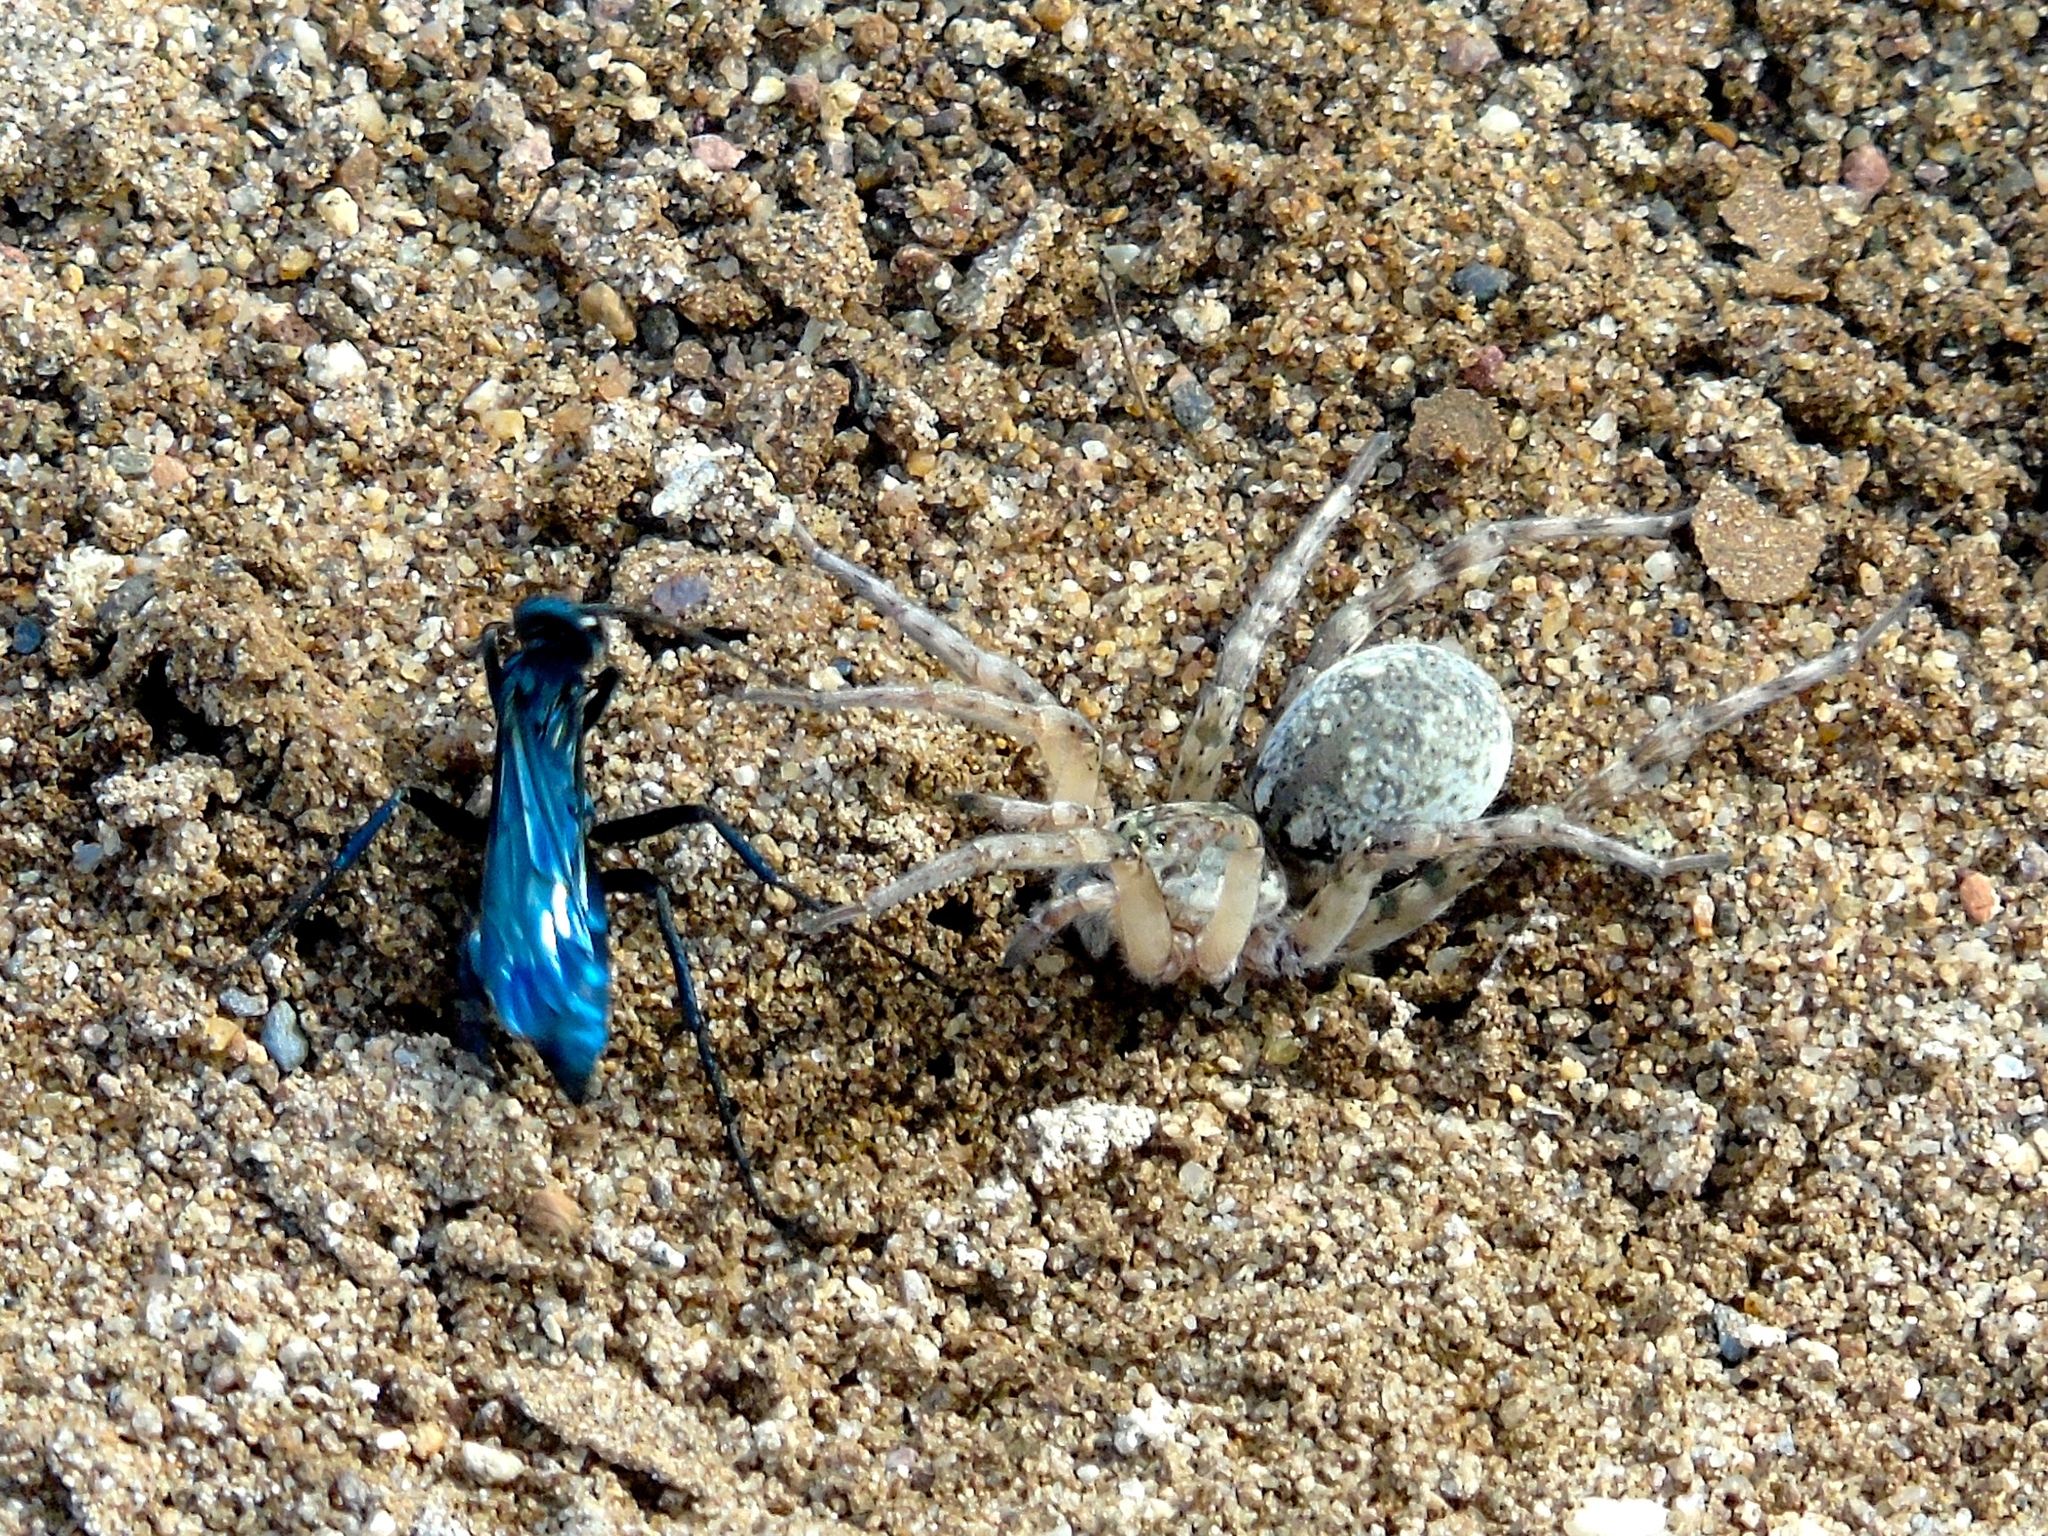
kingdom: Animalia
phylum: Arthropoda
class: Insecta
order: Hymenoptera
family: Pompilidae
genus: Pepsis
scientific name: Pepsis
